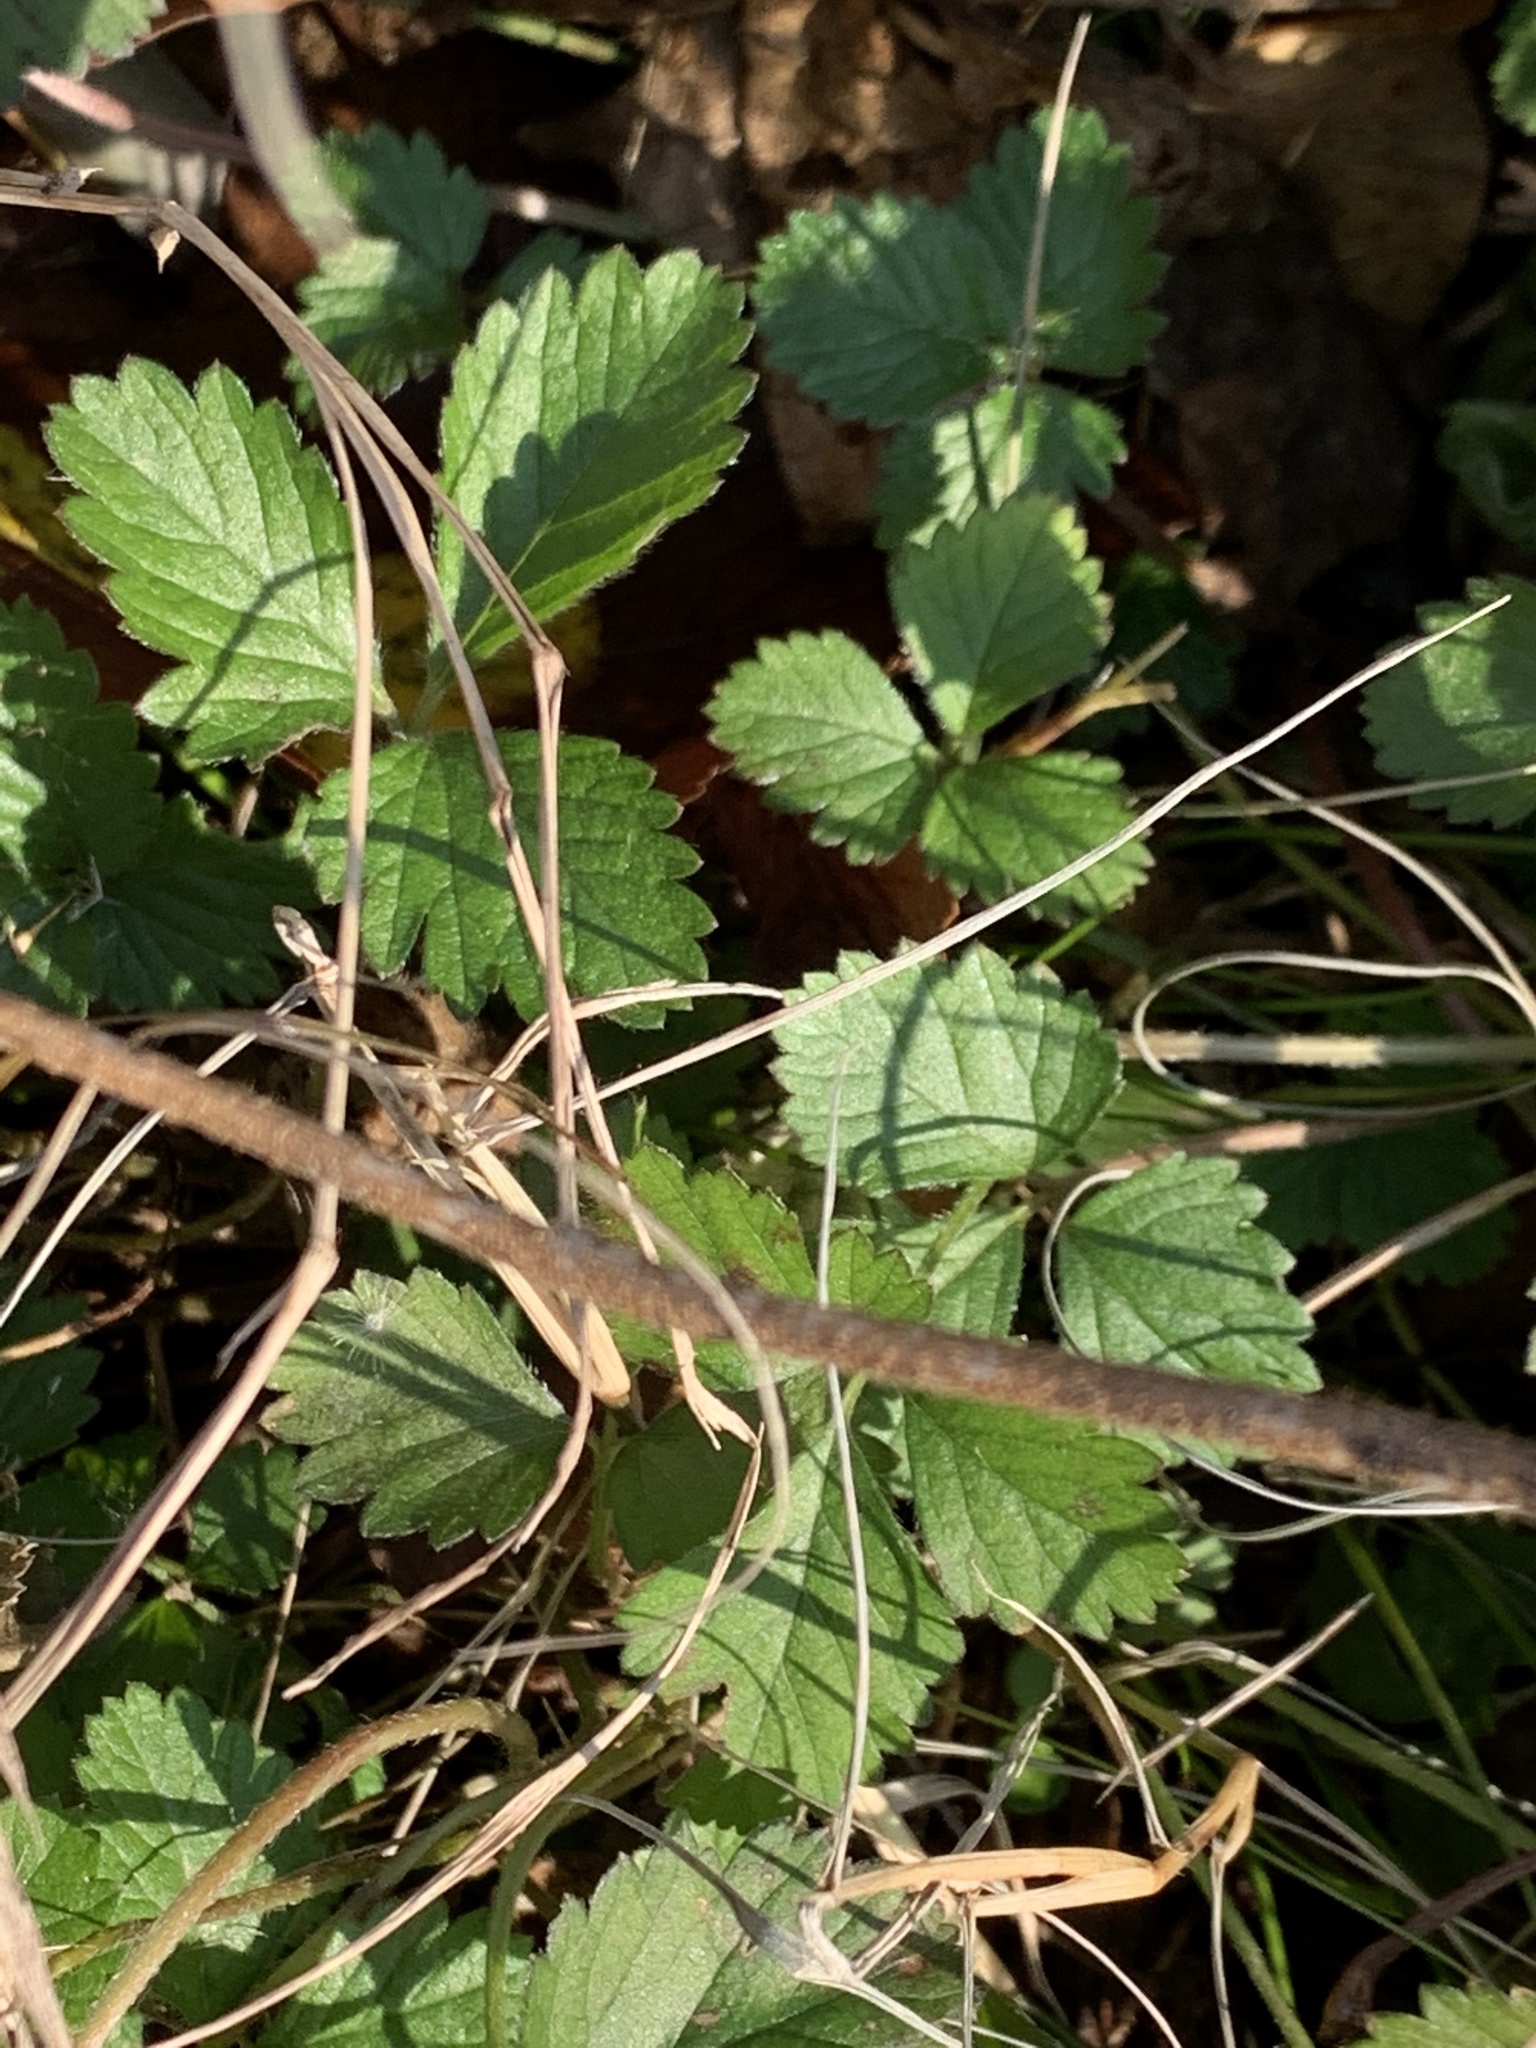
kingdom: Plantae
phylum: Tracheophyta
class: Magnoliopsida
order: Rosales
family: Rosaceae
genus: Potentilla
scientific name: Potentilla indica
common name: Yellow-flowered strawberry
